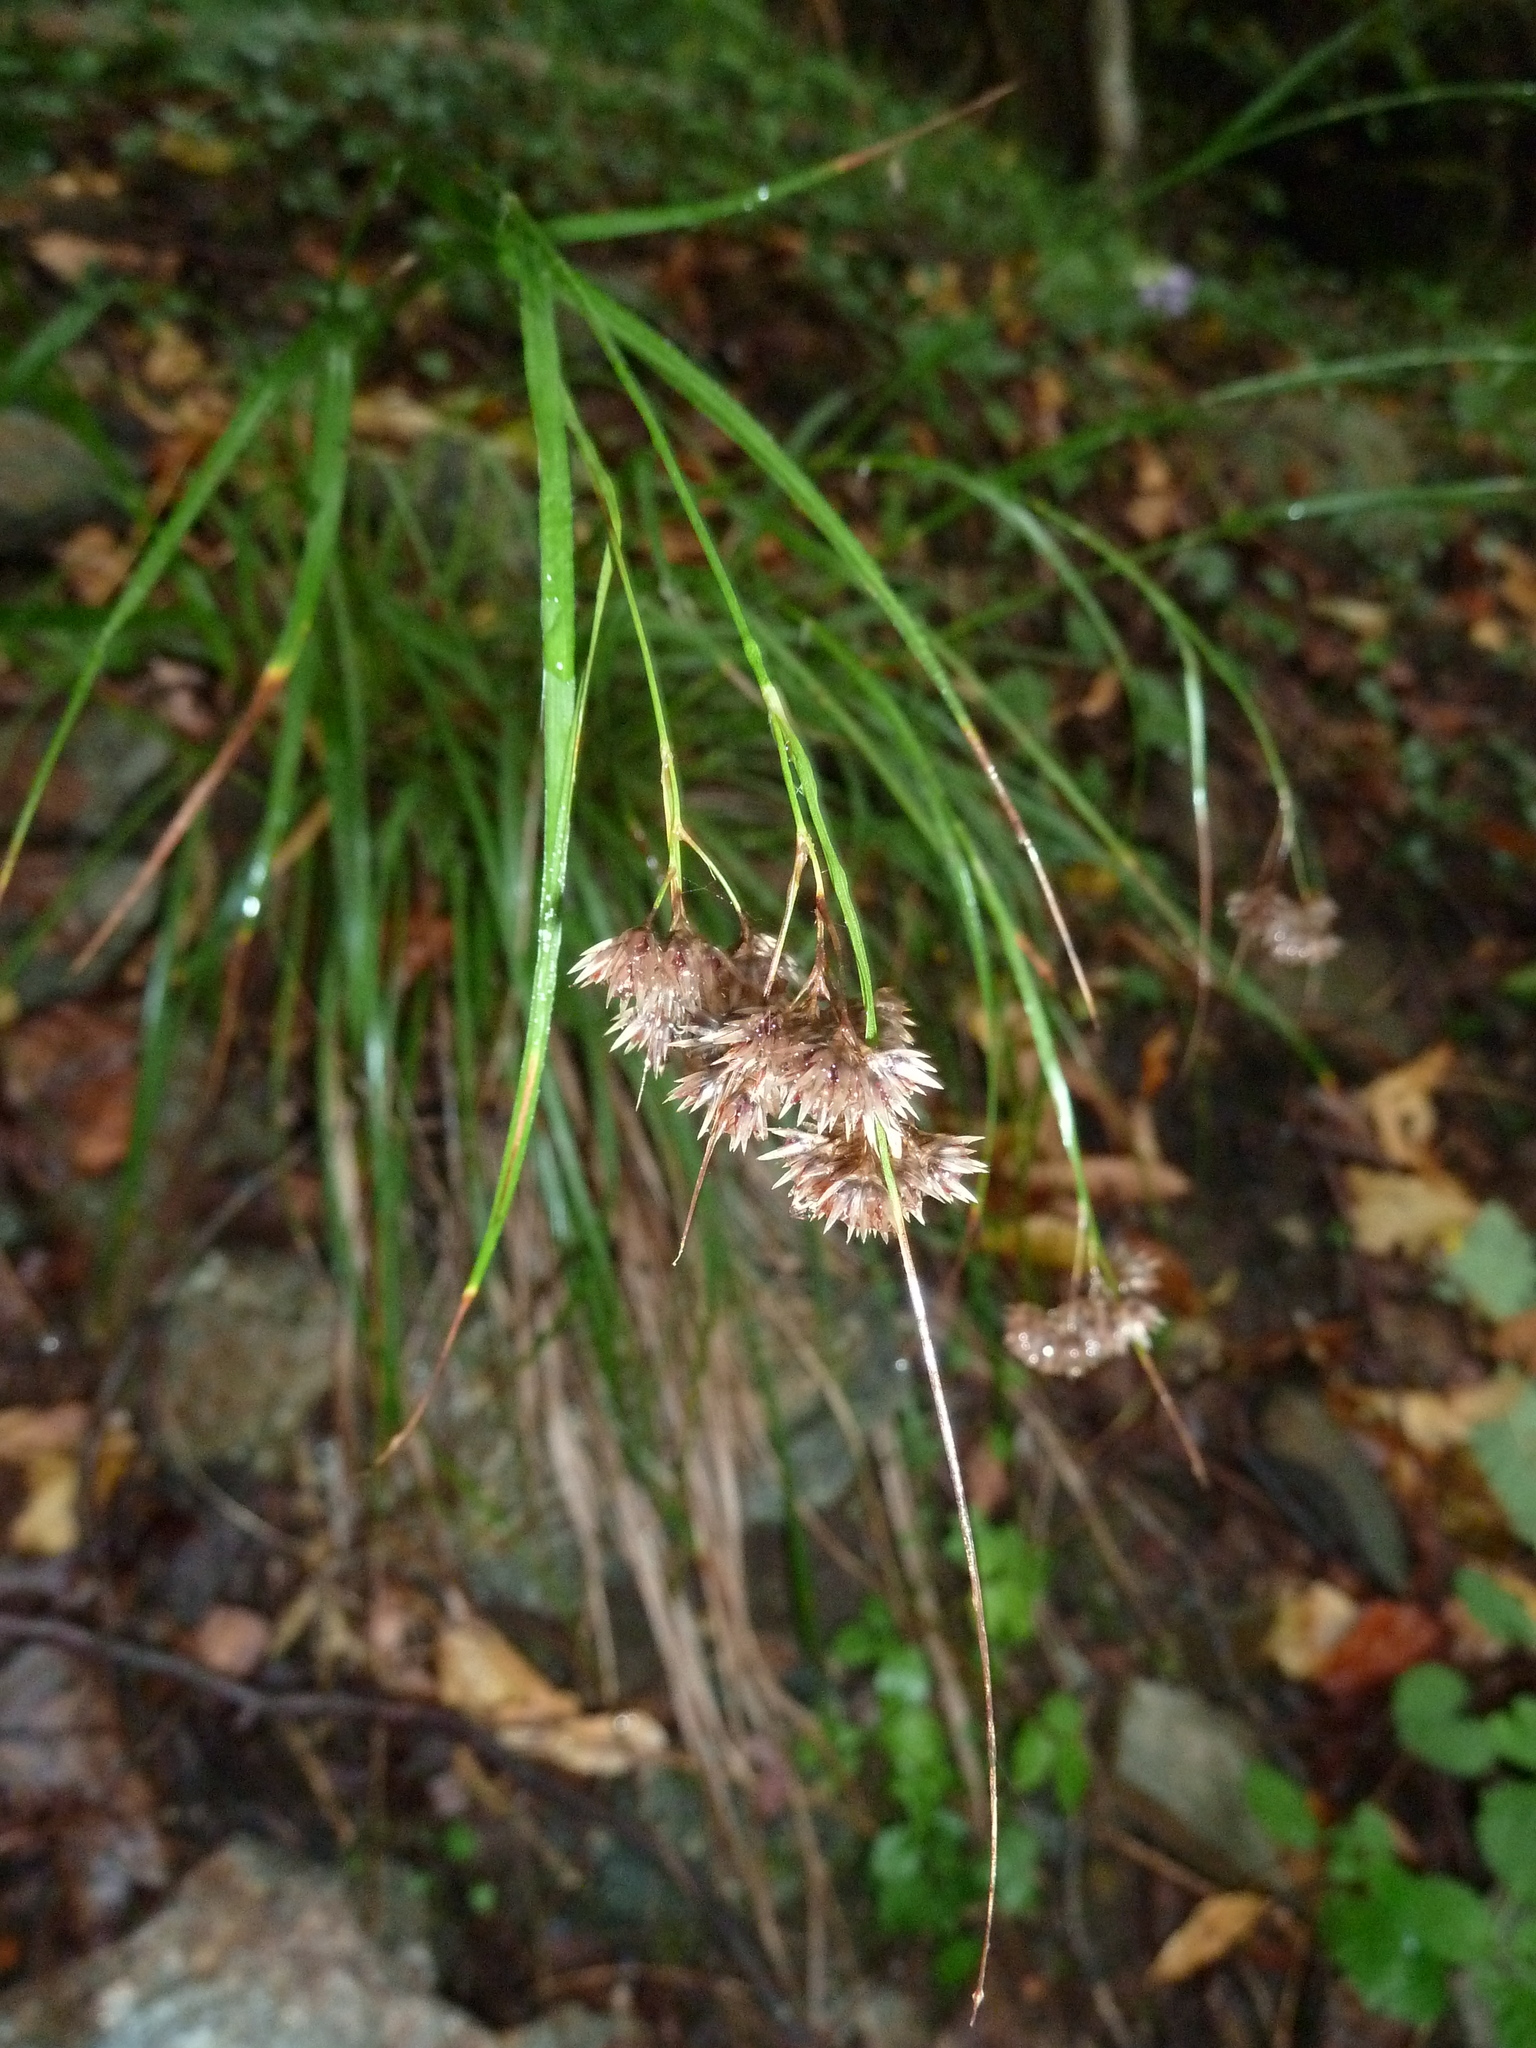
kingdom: Plantae
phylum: Tracheophyta
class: Liliopsida
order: Poales
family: Juncaceae
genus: Luzula
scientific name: Luzula multiflora
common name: Heath wood-rush
